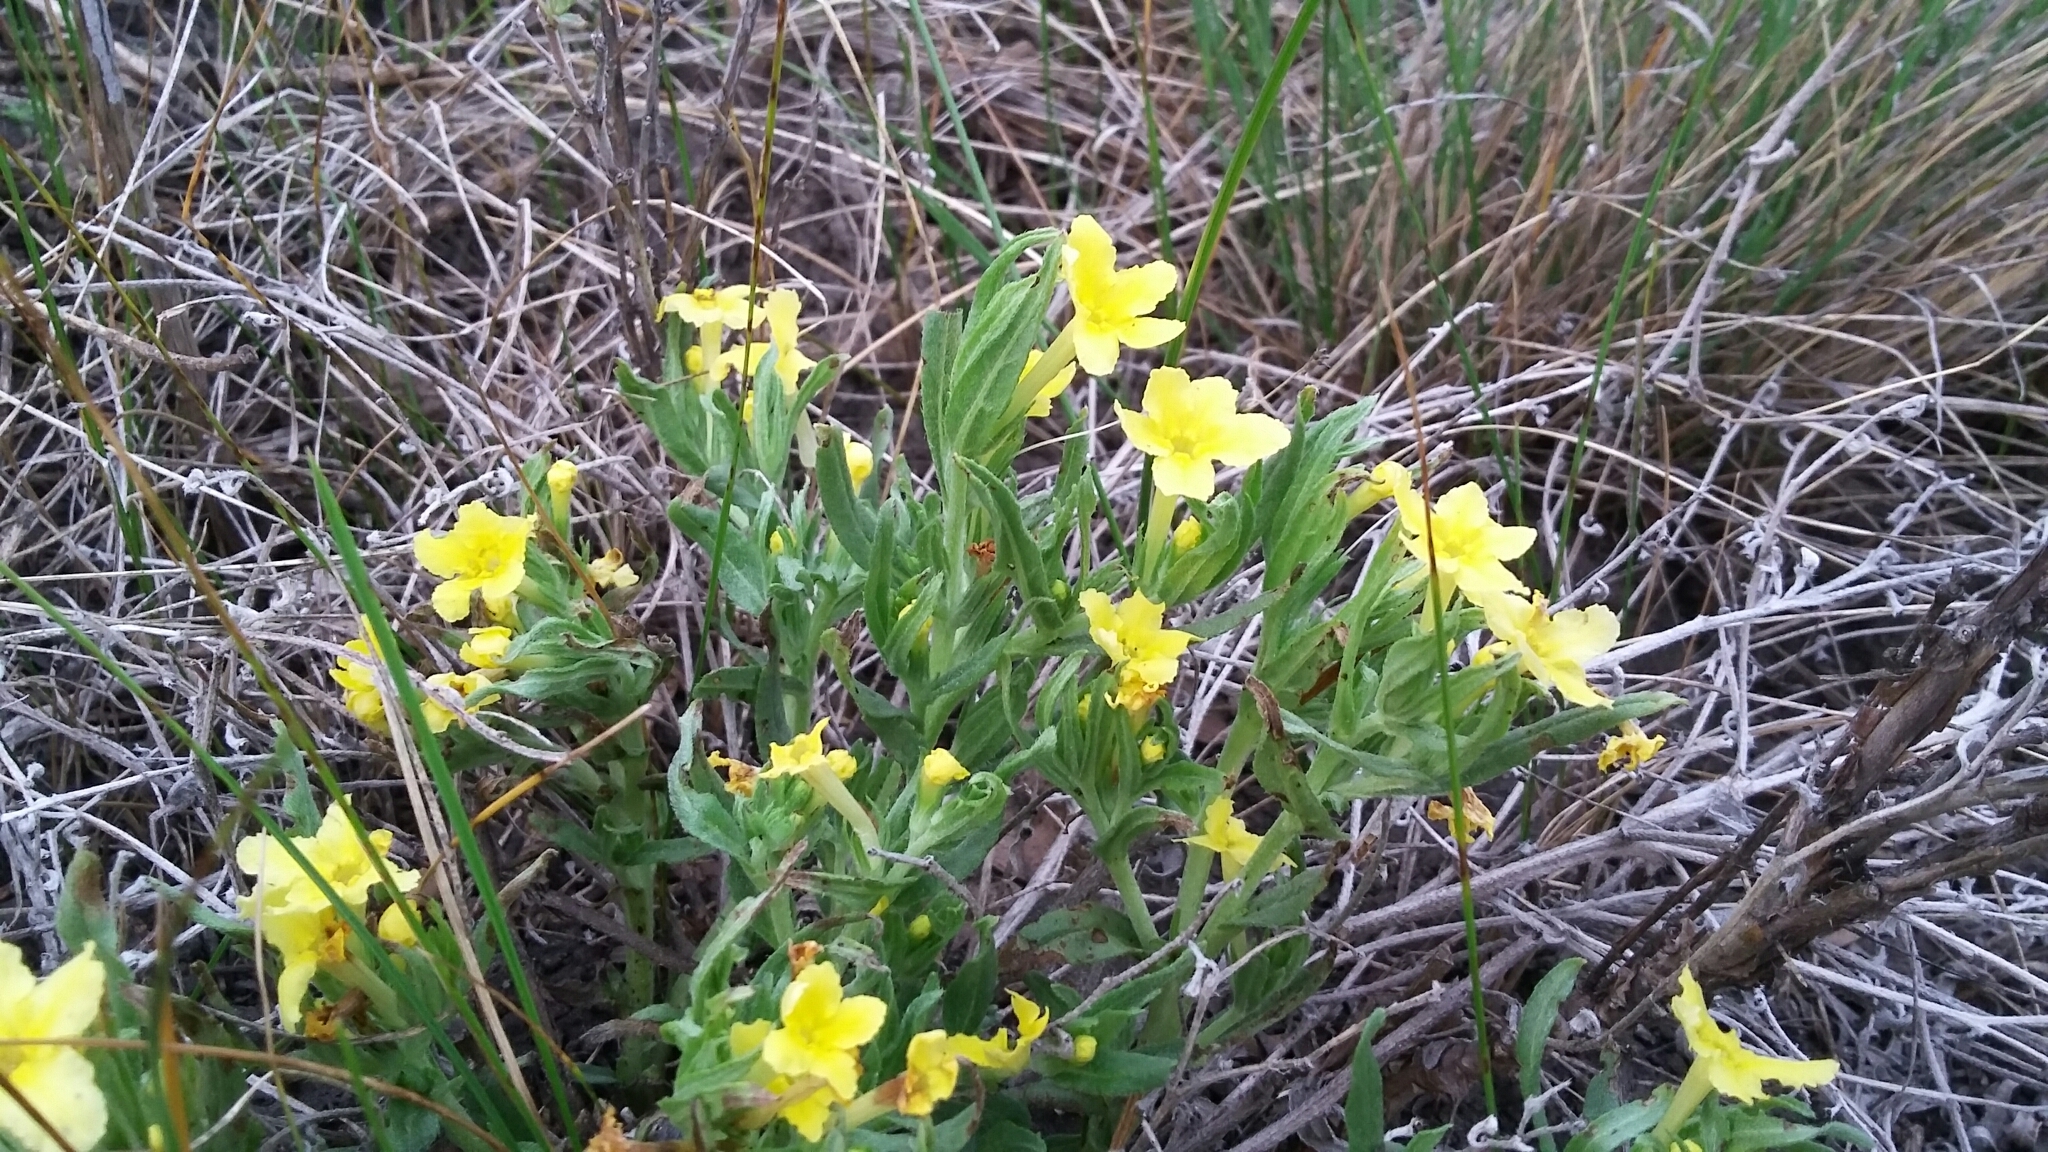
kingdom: Plantae
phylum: Tracheophyta
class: Magnoliopsida
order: Boraginales
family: Boraginaceae
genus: Lithospermum
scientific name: Lithospermum incisum
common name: Fringed gromwell
